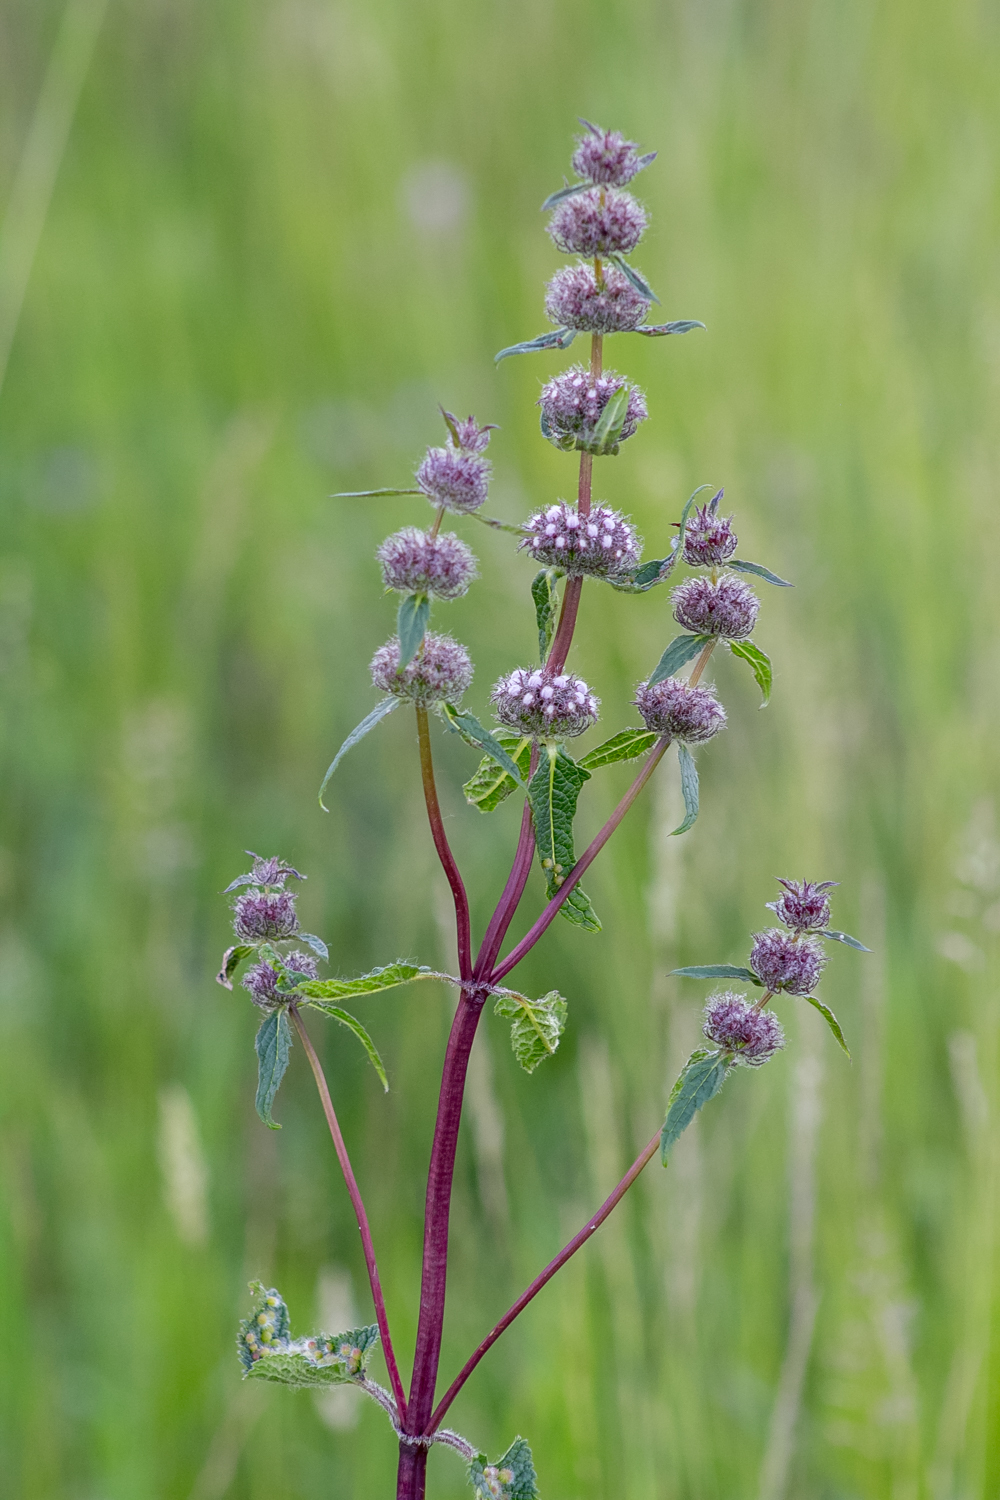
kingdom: Plantae
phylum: Tracheophyta
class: Magnoliopsida
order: Lamiales
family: Lamiaceae
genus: Phlomoides
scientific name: Phlomoides tuberosa
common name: Tuberous jerusalem sage
